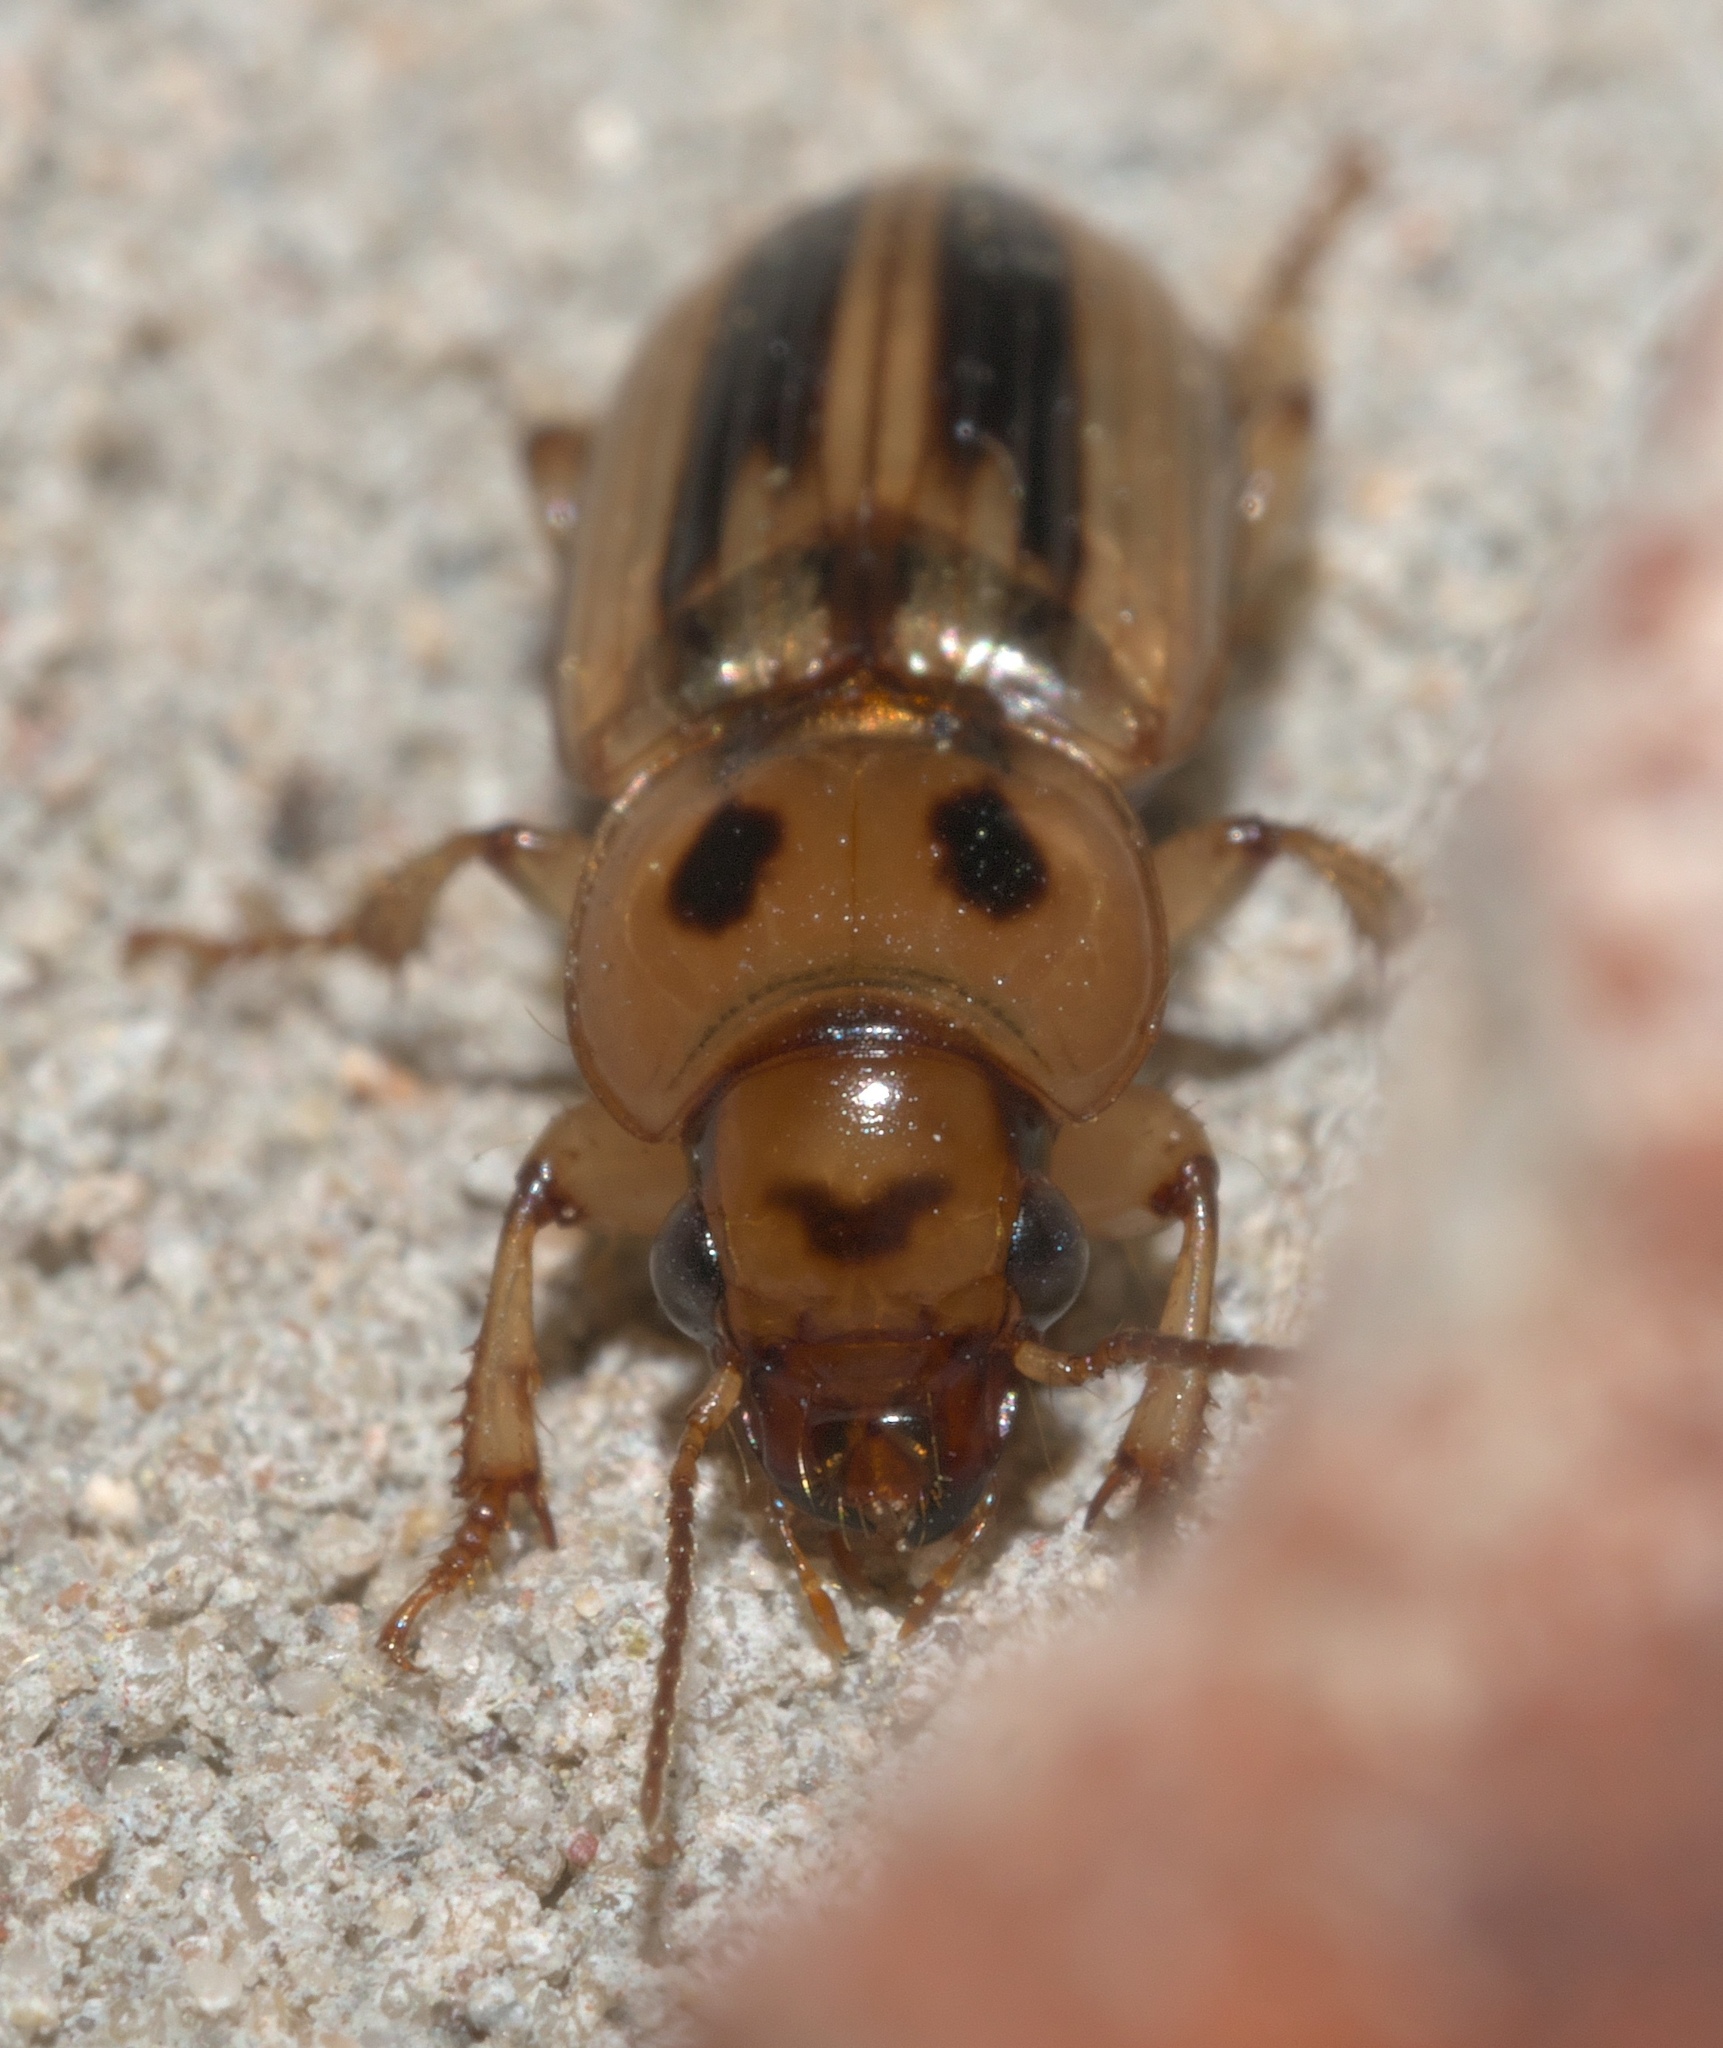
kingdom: Animalia
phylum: Arthropoda
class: Insecta
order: Coleoptera
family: Carabidae
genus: Stenolophus
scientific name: Stenolophus lineola
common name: Lined stenolophus
